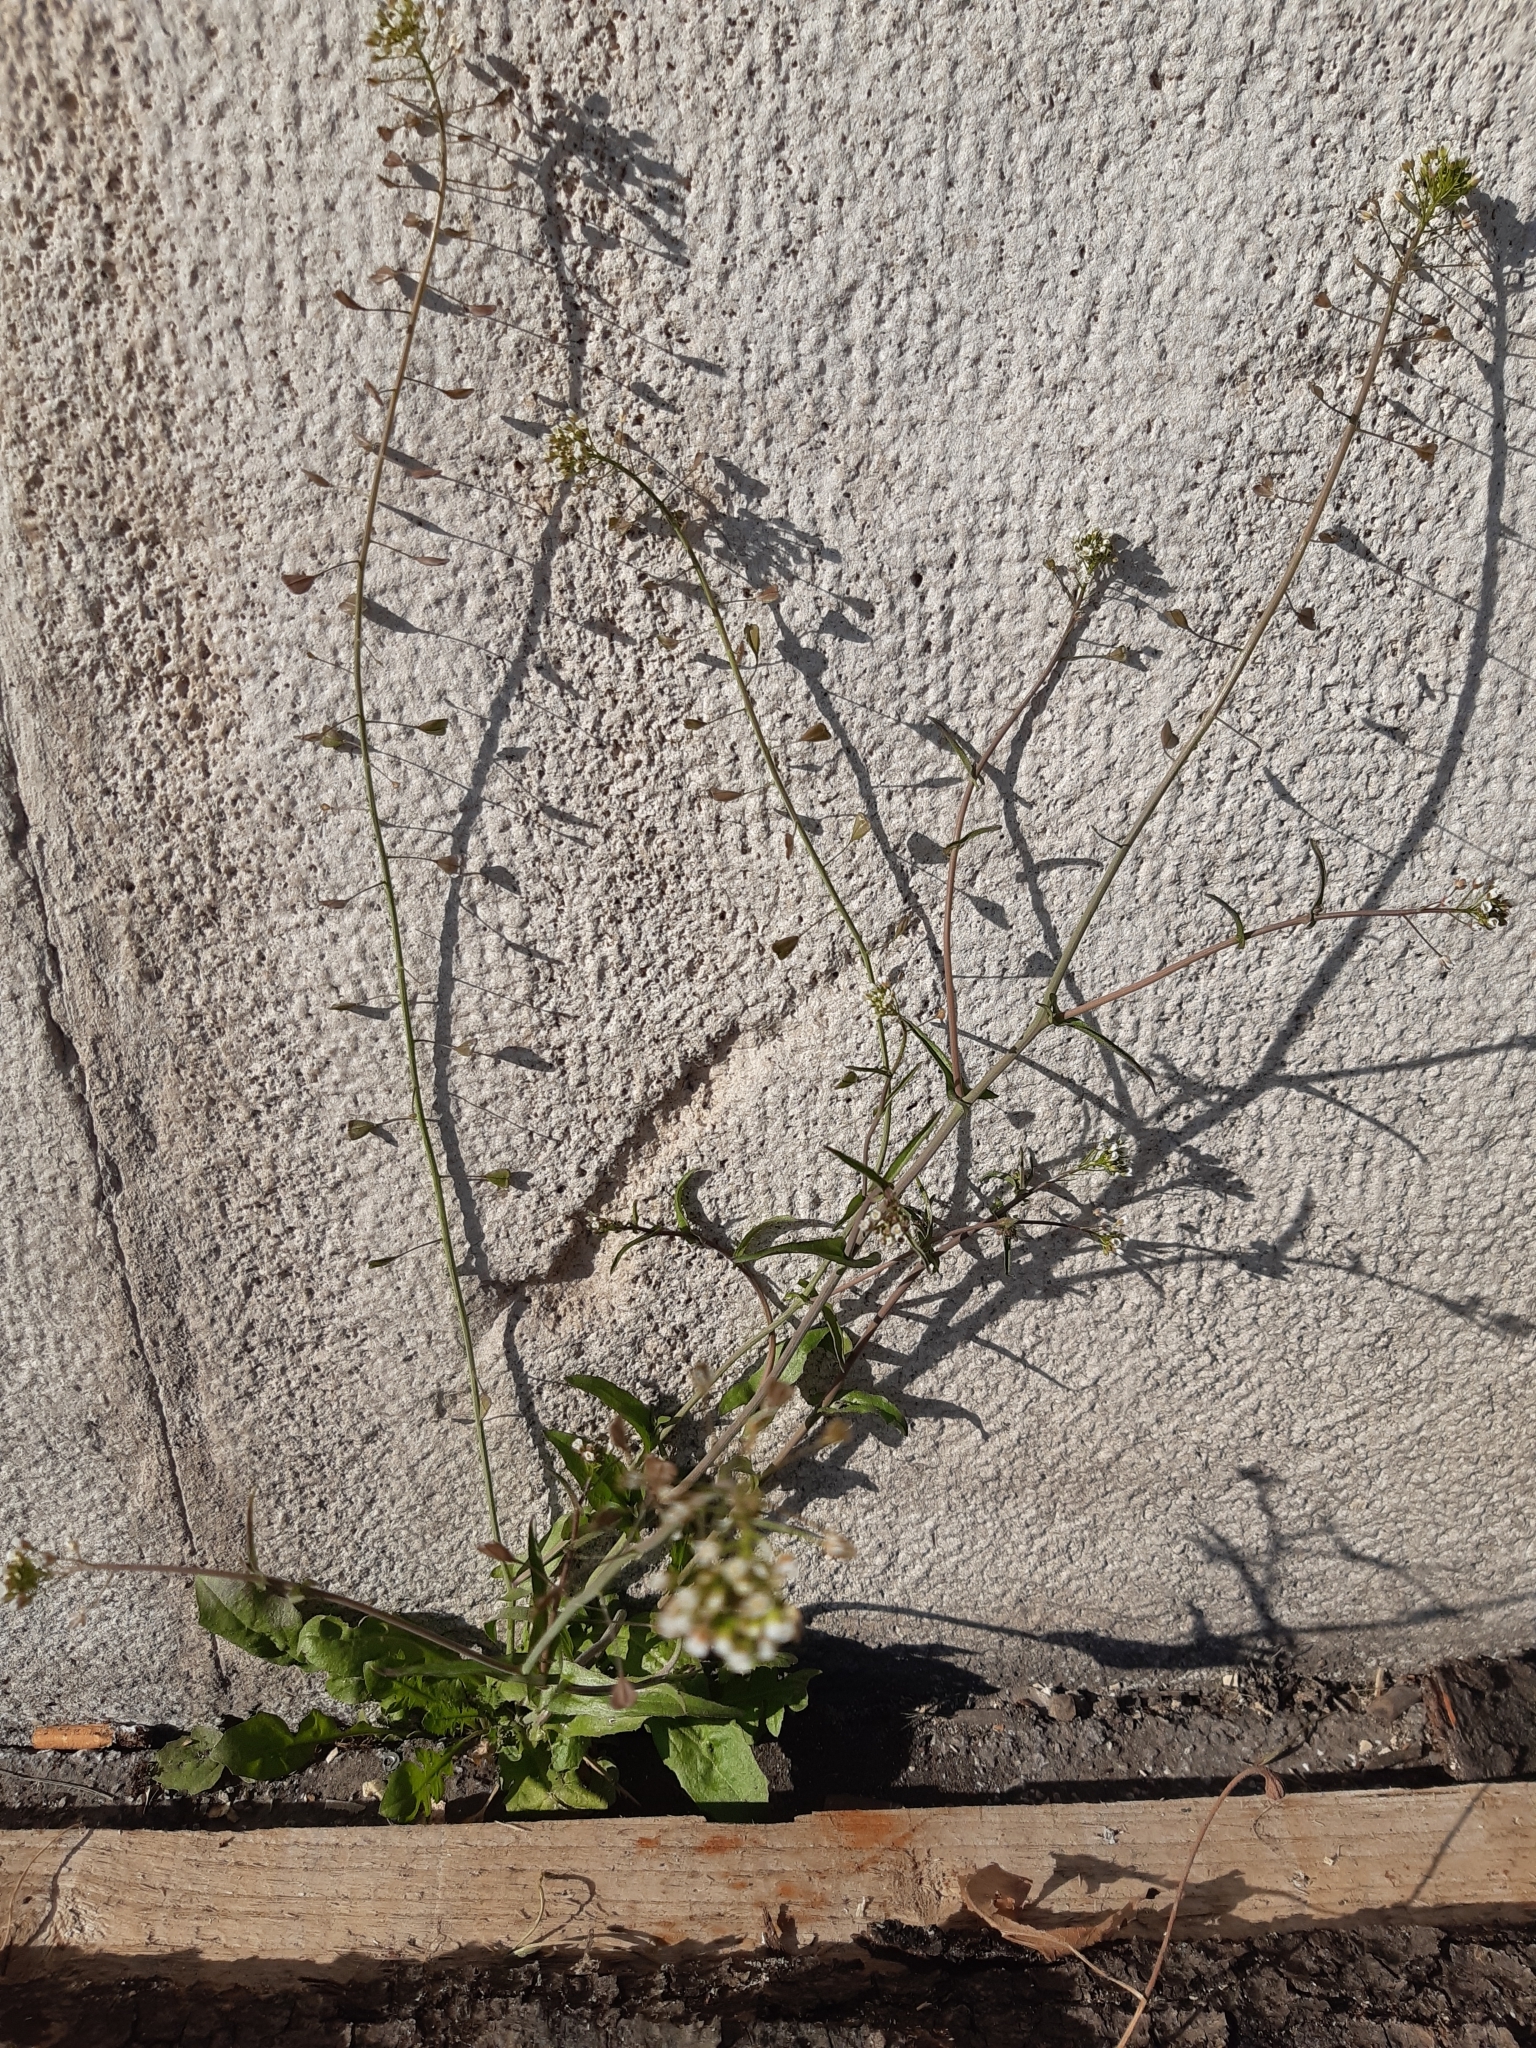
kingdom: Plantae
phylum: Tracheophyta
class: Magnoliopsida
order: Brassicales
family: Brassicaceae
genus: Capsella
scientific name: Capsella bursa-pastoris
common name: Shepherd's purse
